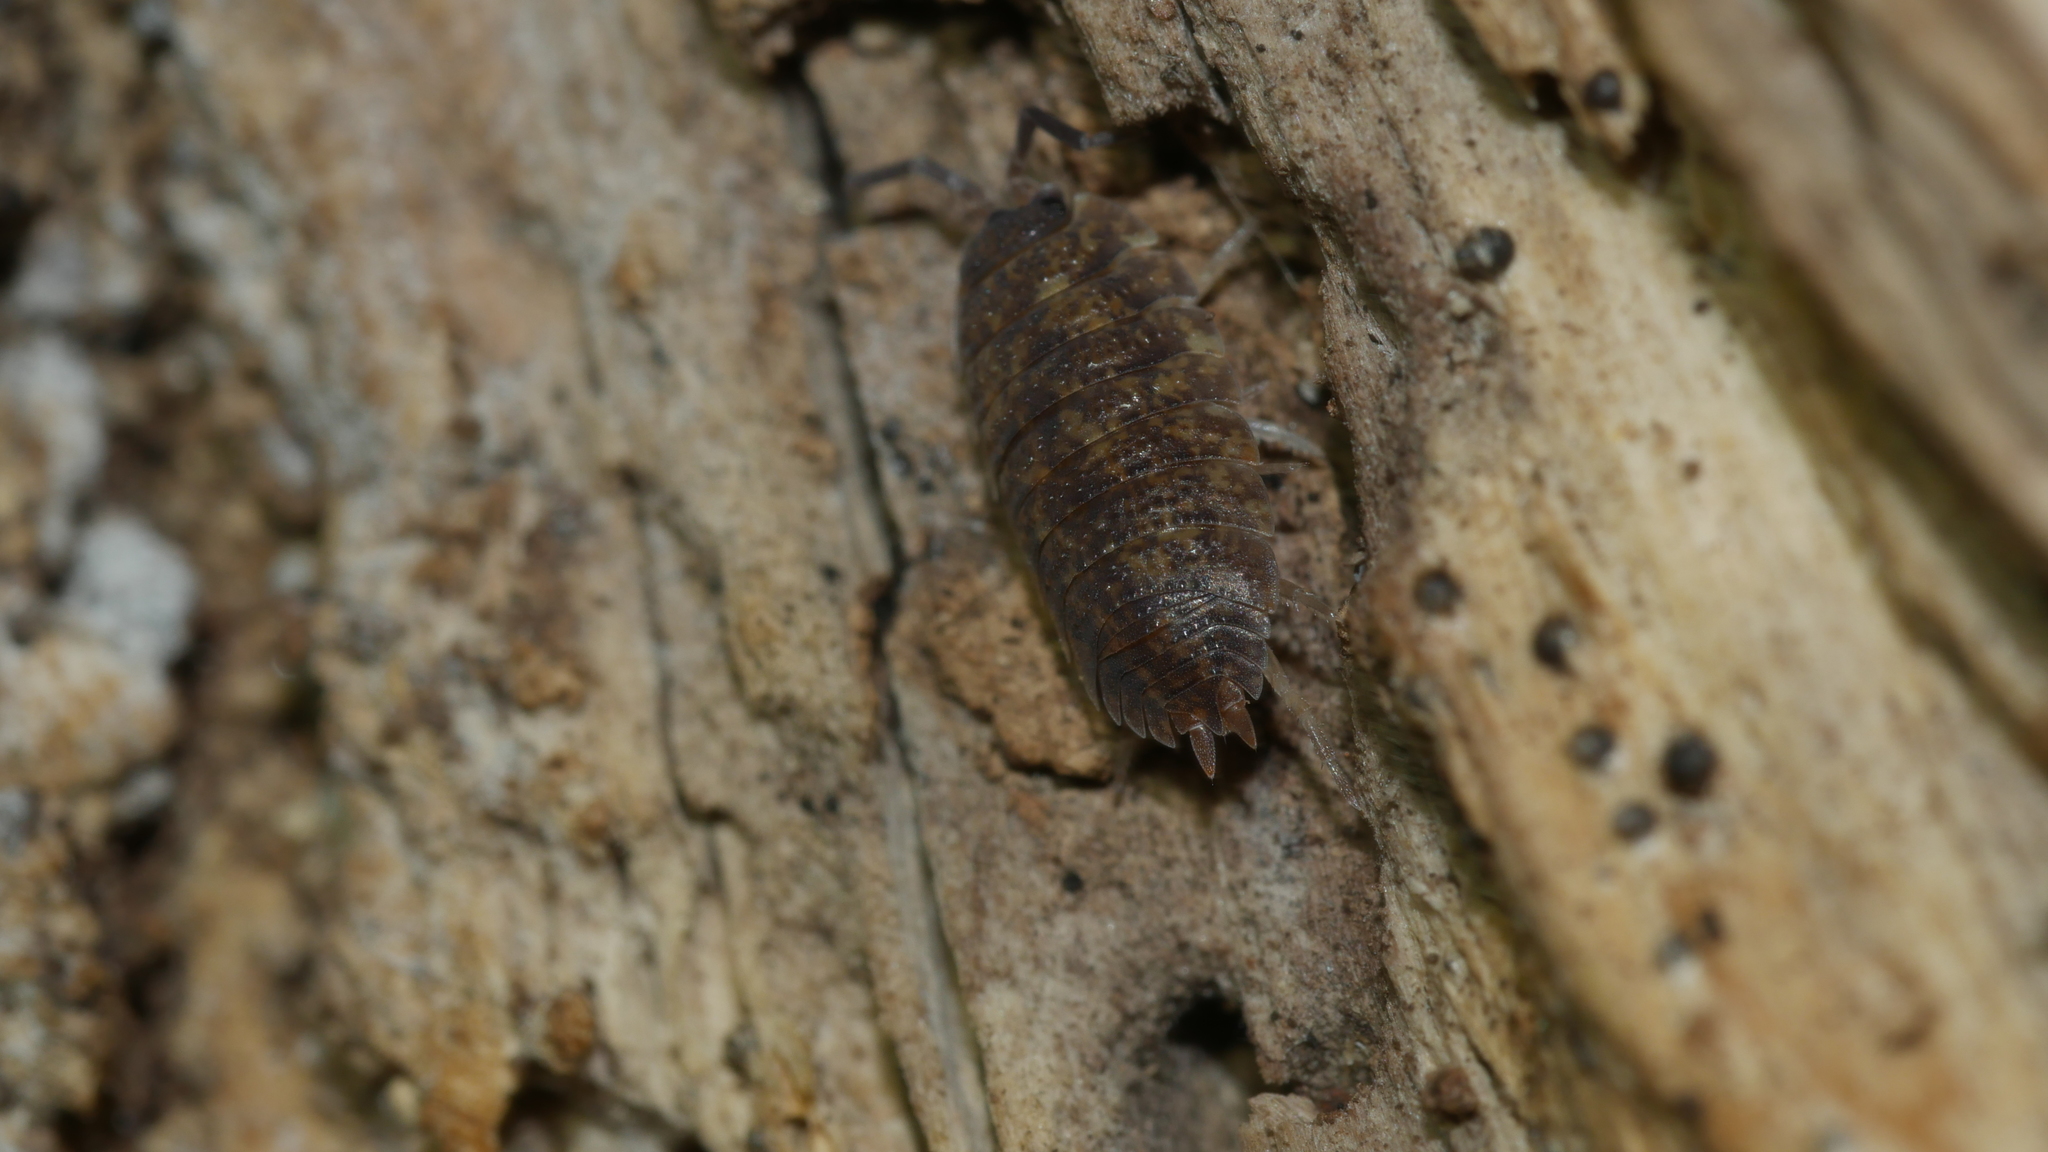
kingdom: Animalia
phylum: Arthropoda
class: Malacostraca
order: Isopoda
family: Porcellionidae
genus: Porcellio
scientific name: Porcellio scaber
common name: Common rough woodlouse
